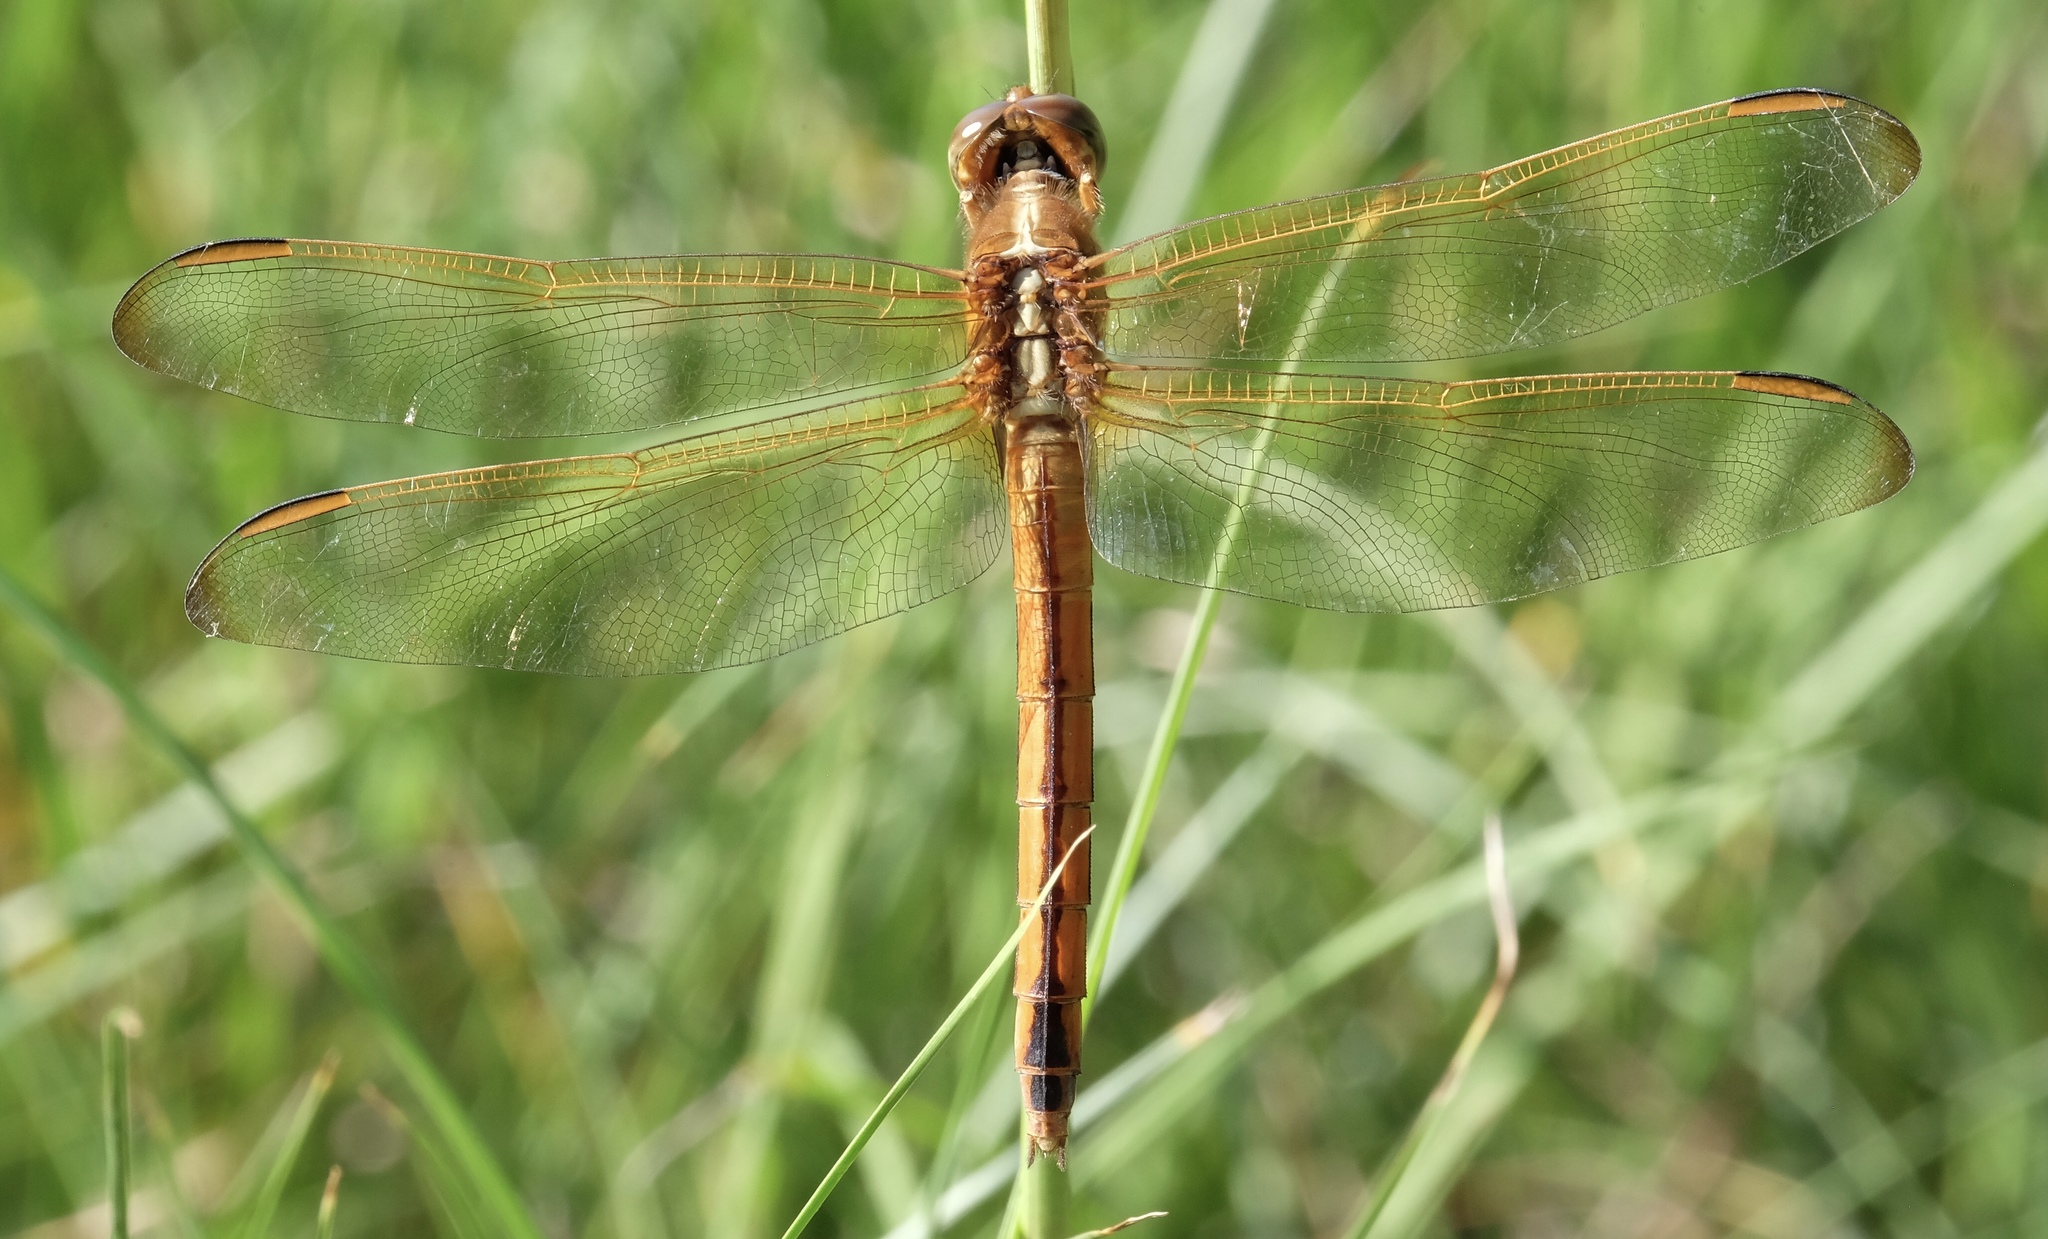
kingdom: Animalia
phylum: Arthropoda
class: Insecta
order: Odonata
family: Libellulidae
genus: Libellula
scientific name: Libellula needhami
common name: Needham's skimmer
